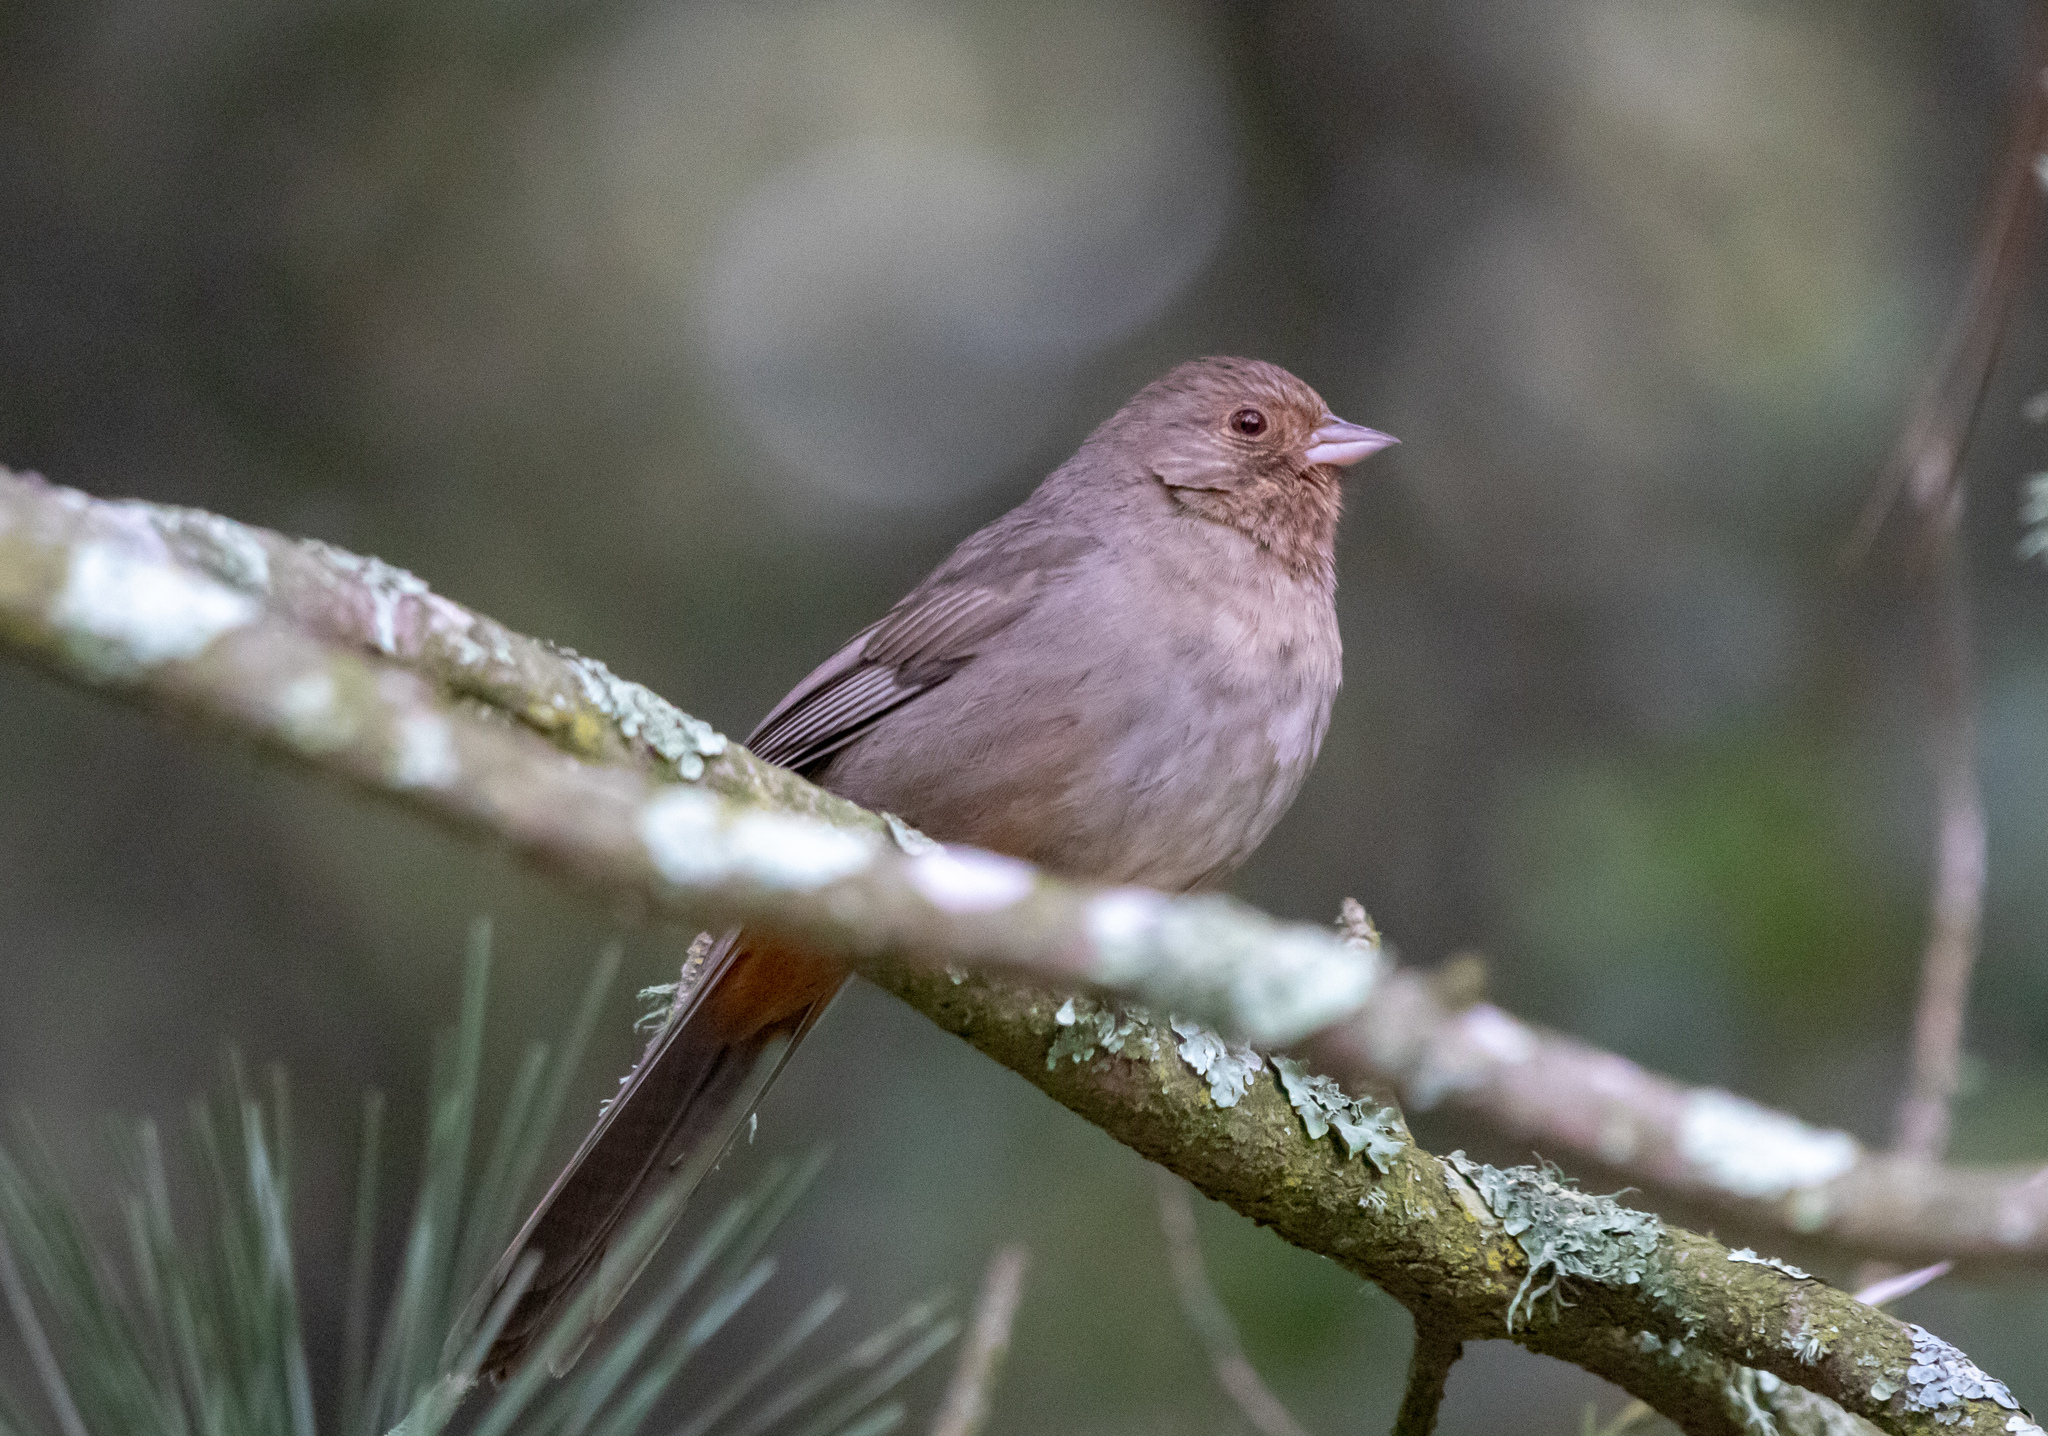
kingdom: Animalia
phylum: Chordata
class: Aves
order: Passeriformes
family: Passerellidae
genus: Melozone
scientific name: Melozone crissalis
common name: California towhee
